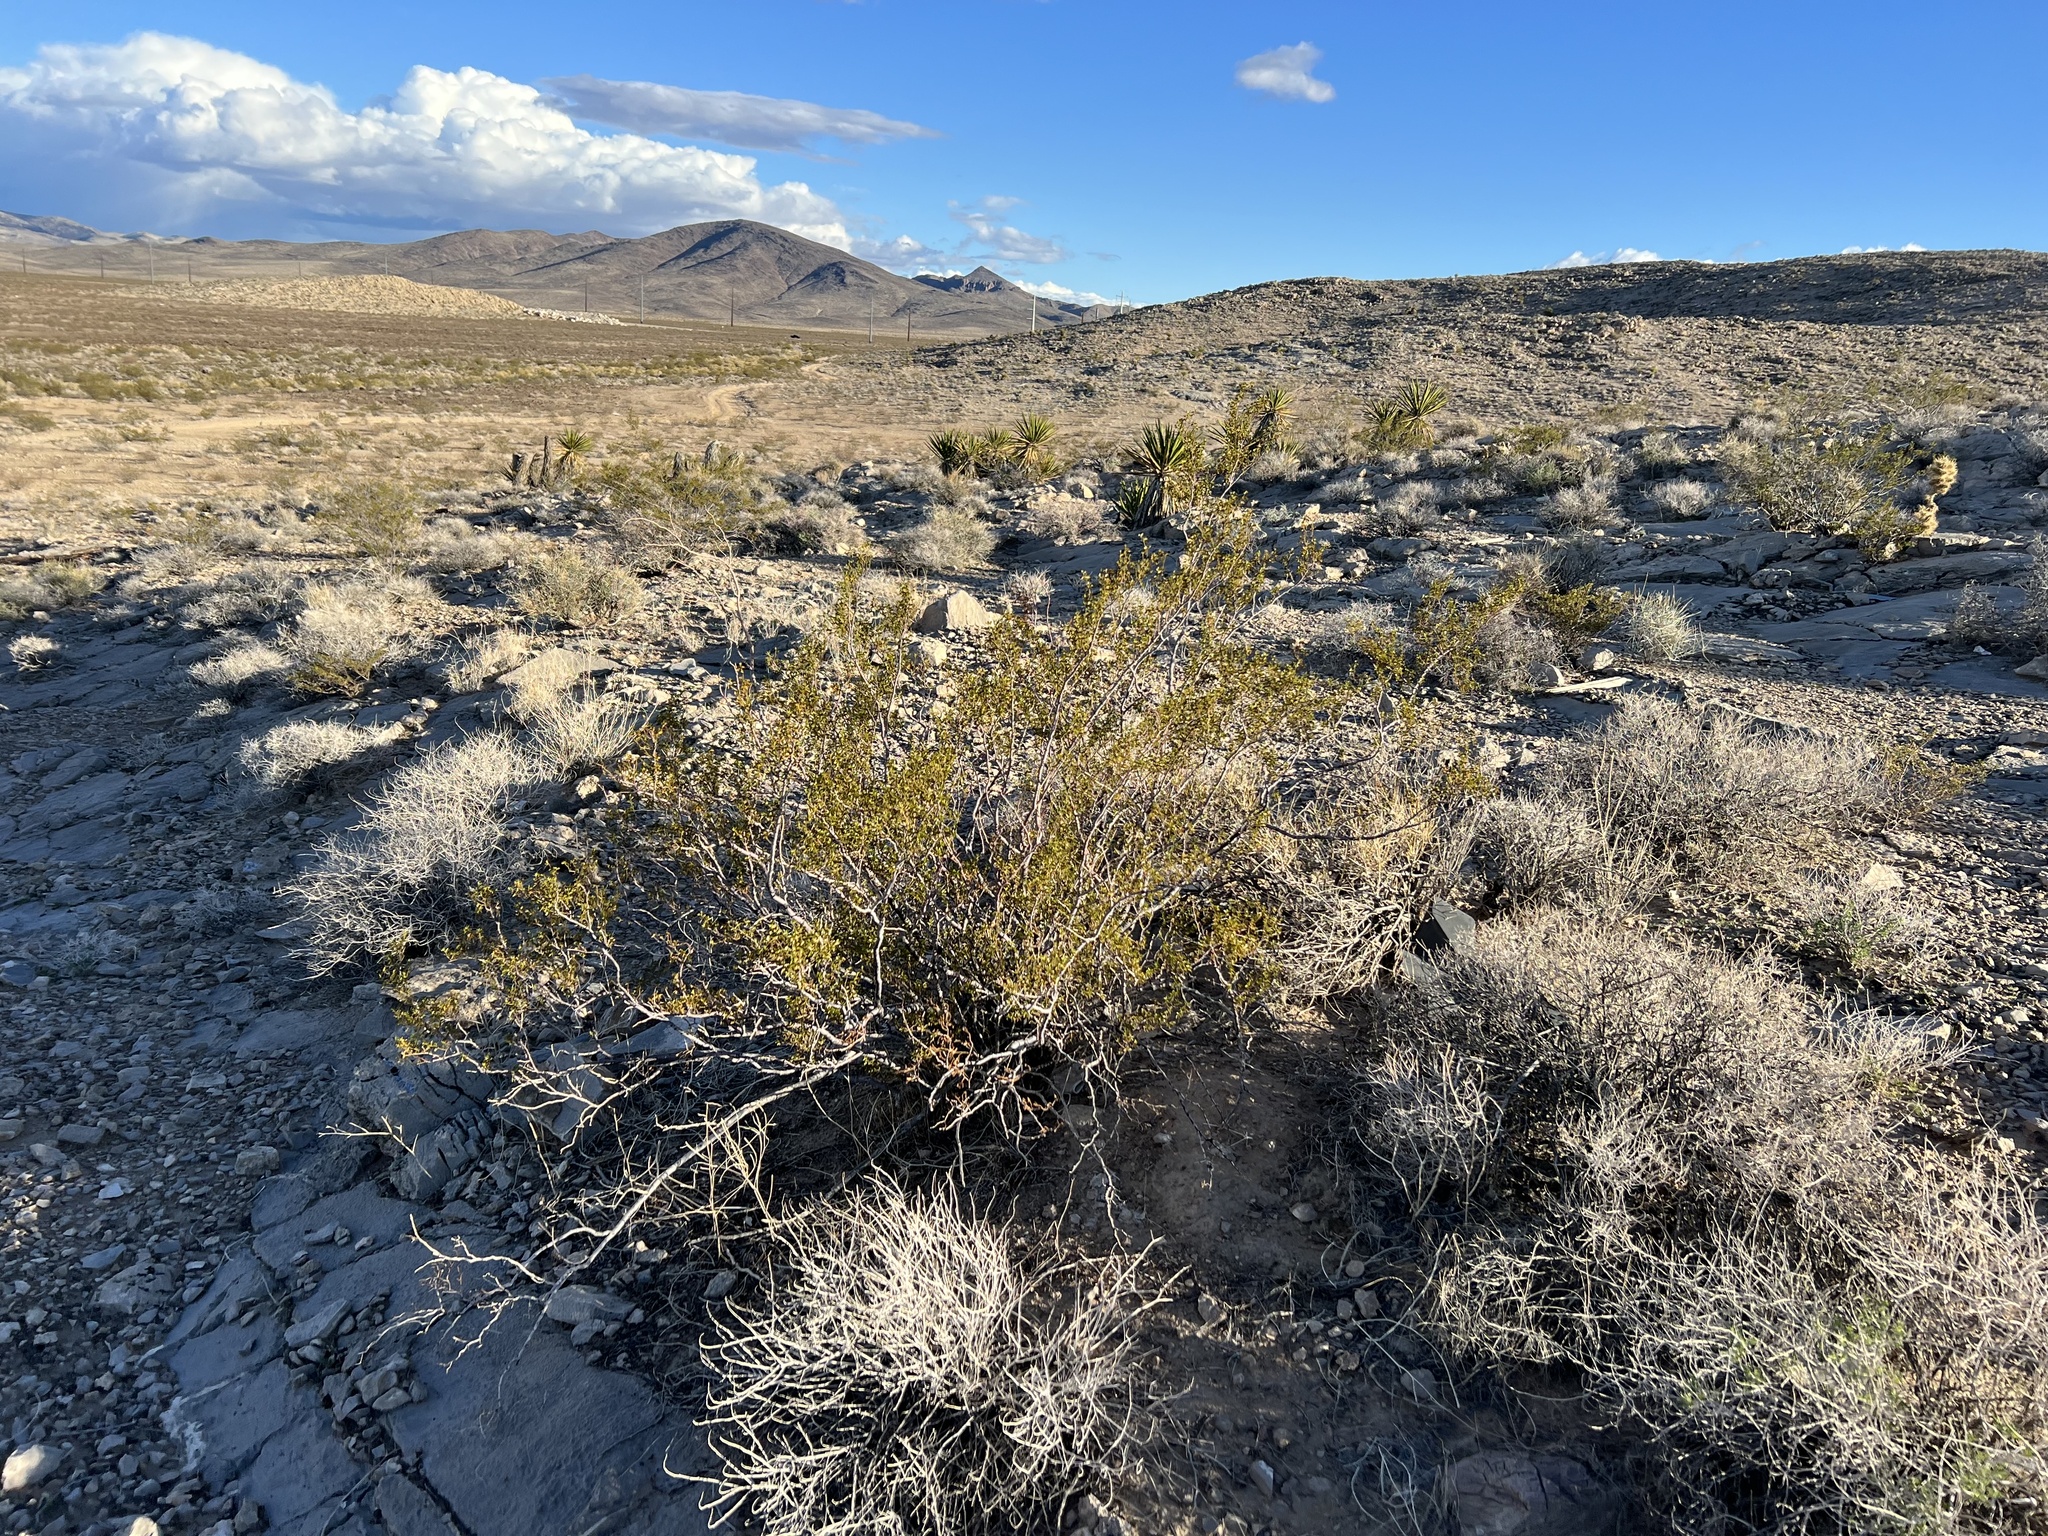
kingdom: Plantae
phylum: Tracheophyta
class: Magnoliopsida
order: Zygophyllales
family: Zygophyllaceae
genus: Larrea
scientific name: Larrea tridentata
